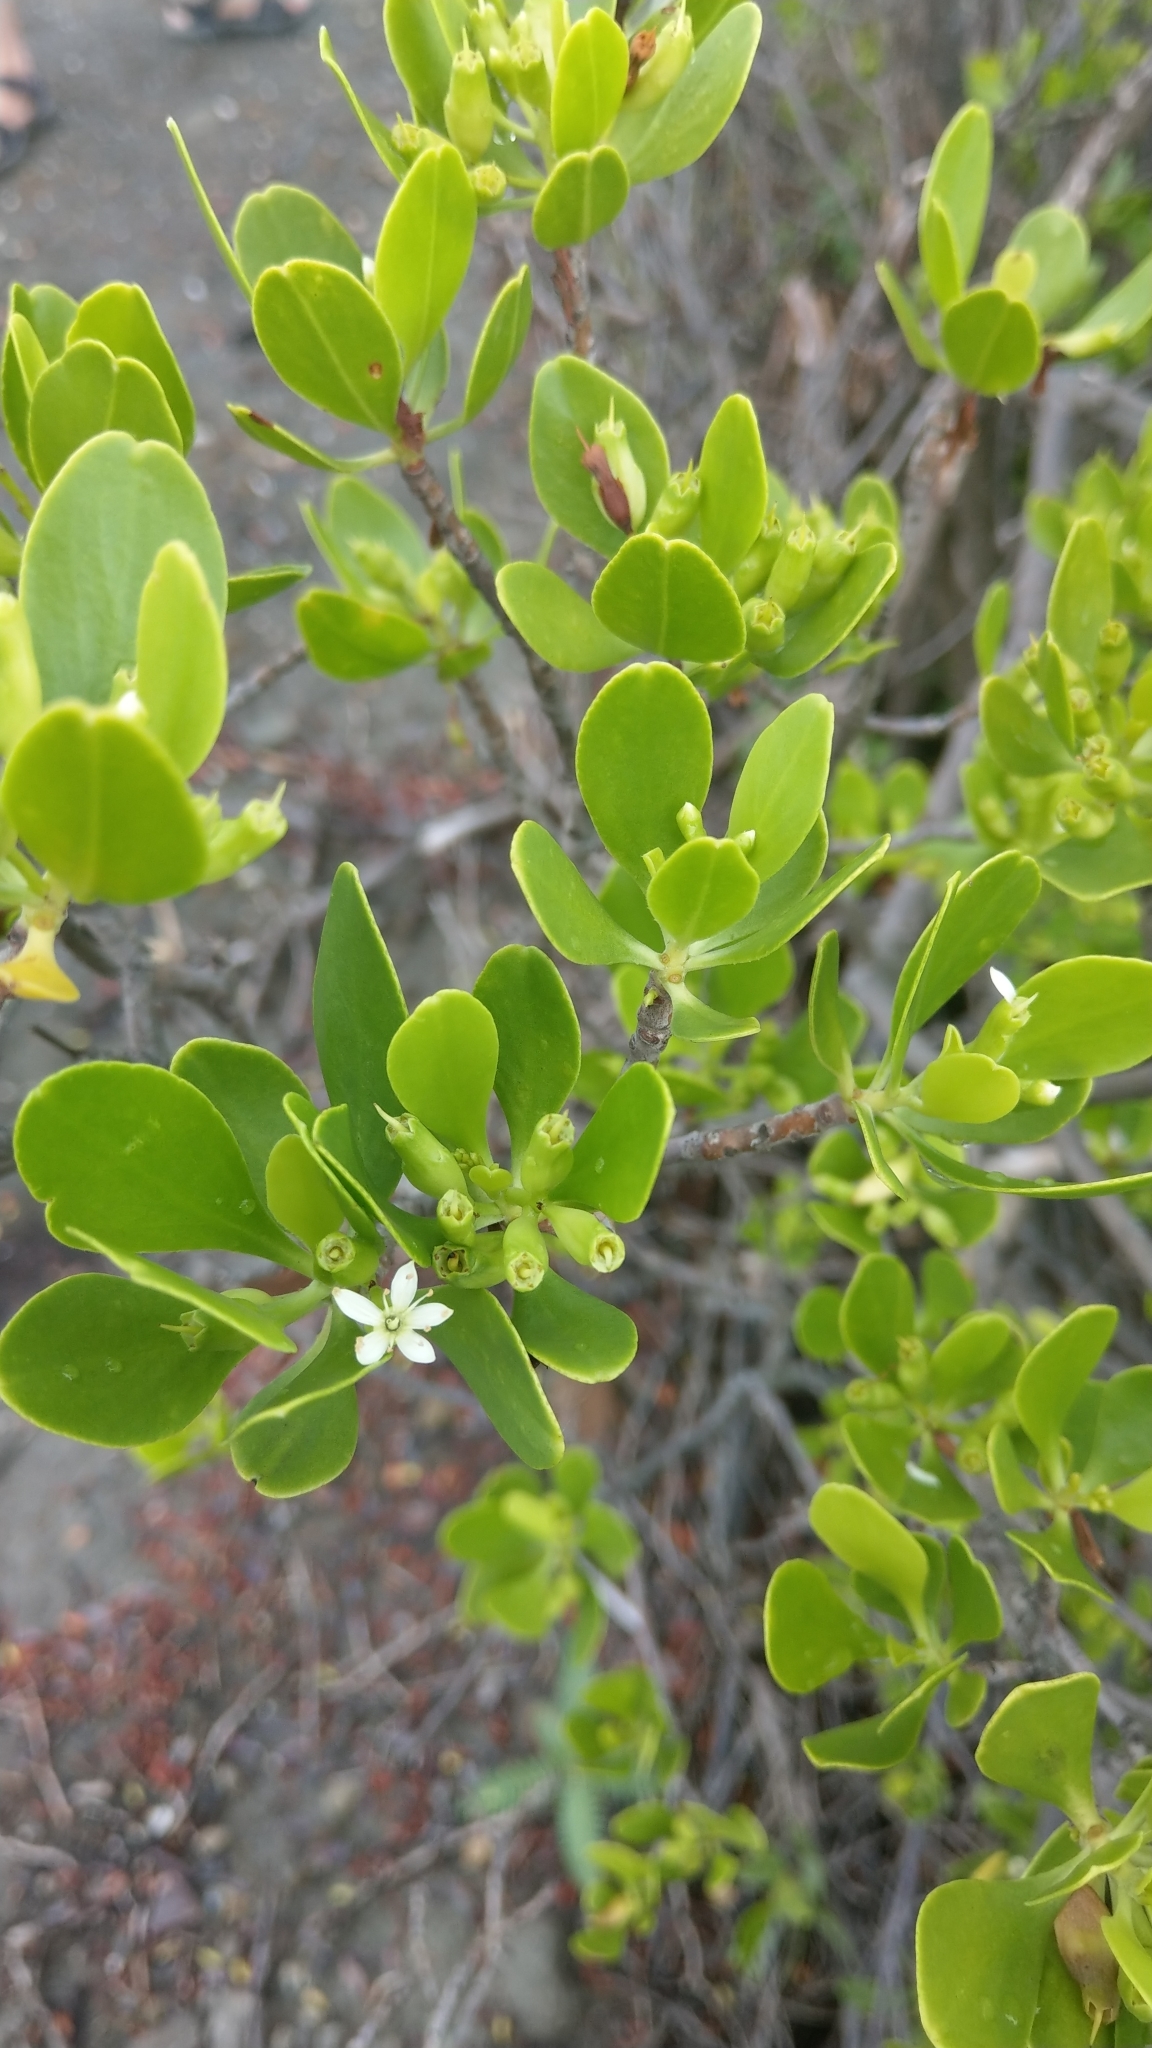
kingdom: Plantae
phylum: Tracheophyta
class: Magnoliopsida
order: Myrtales
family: Combretaceae
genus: Lumnitzera
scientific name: Lumnitzera racemosa
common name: White-flowered black mangrove
